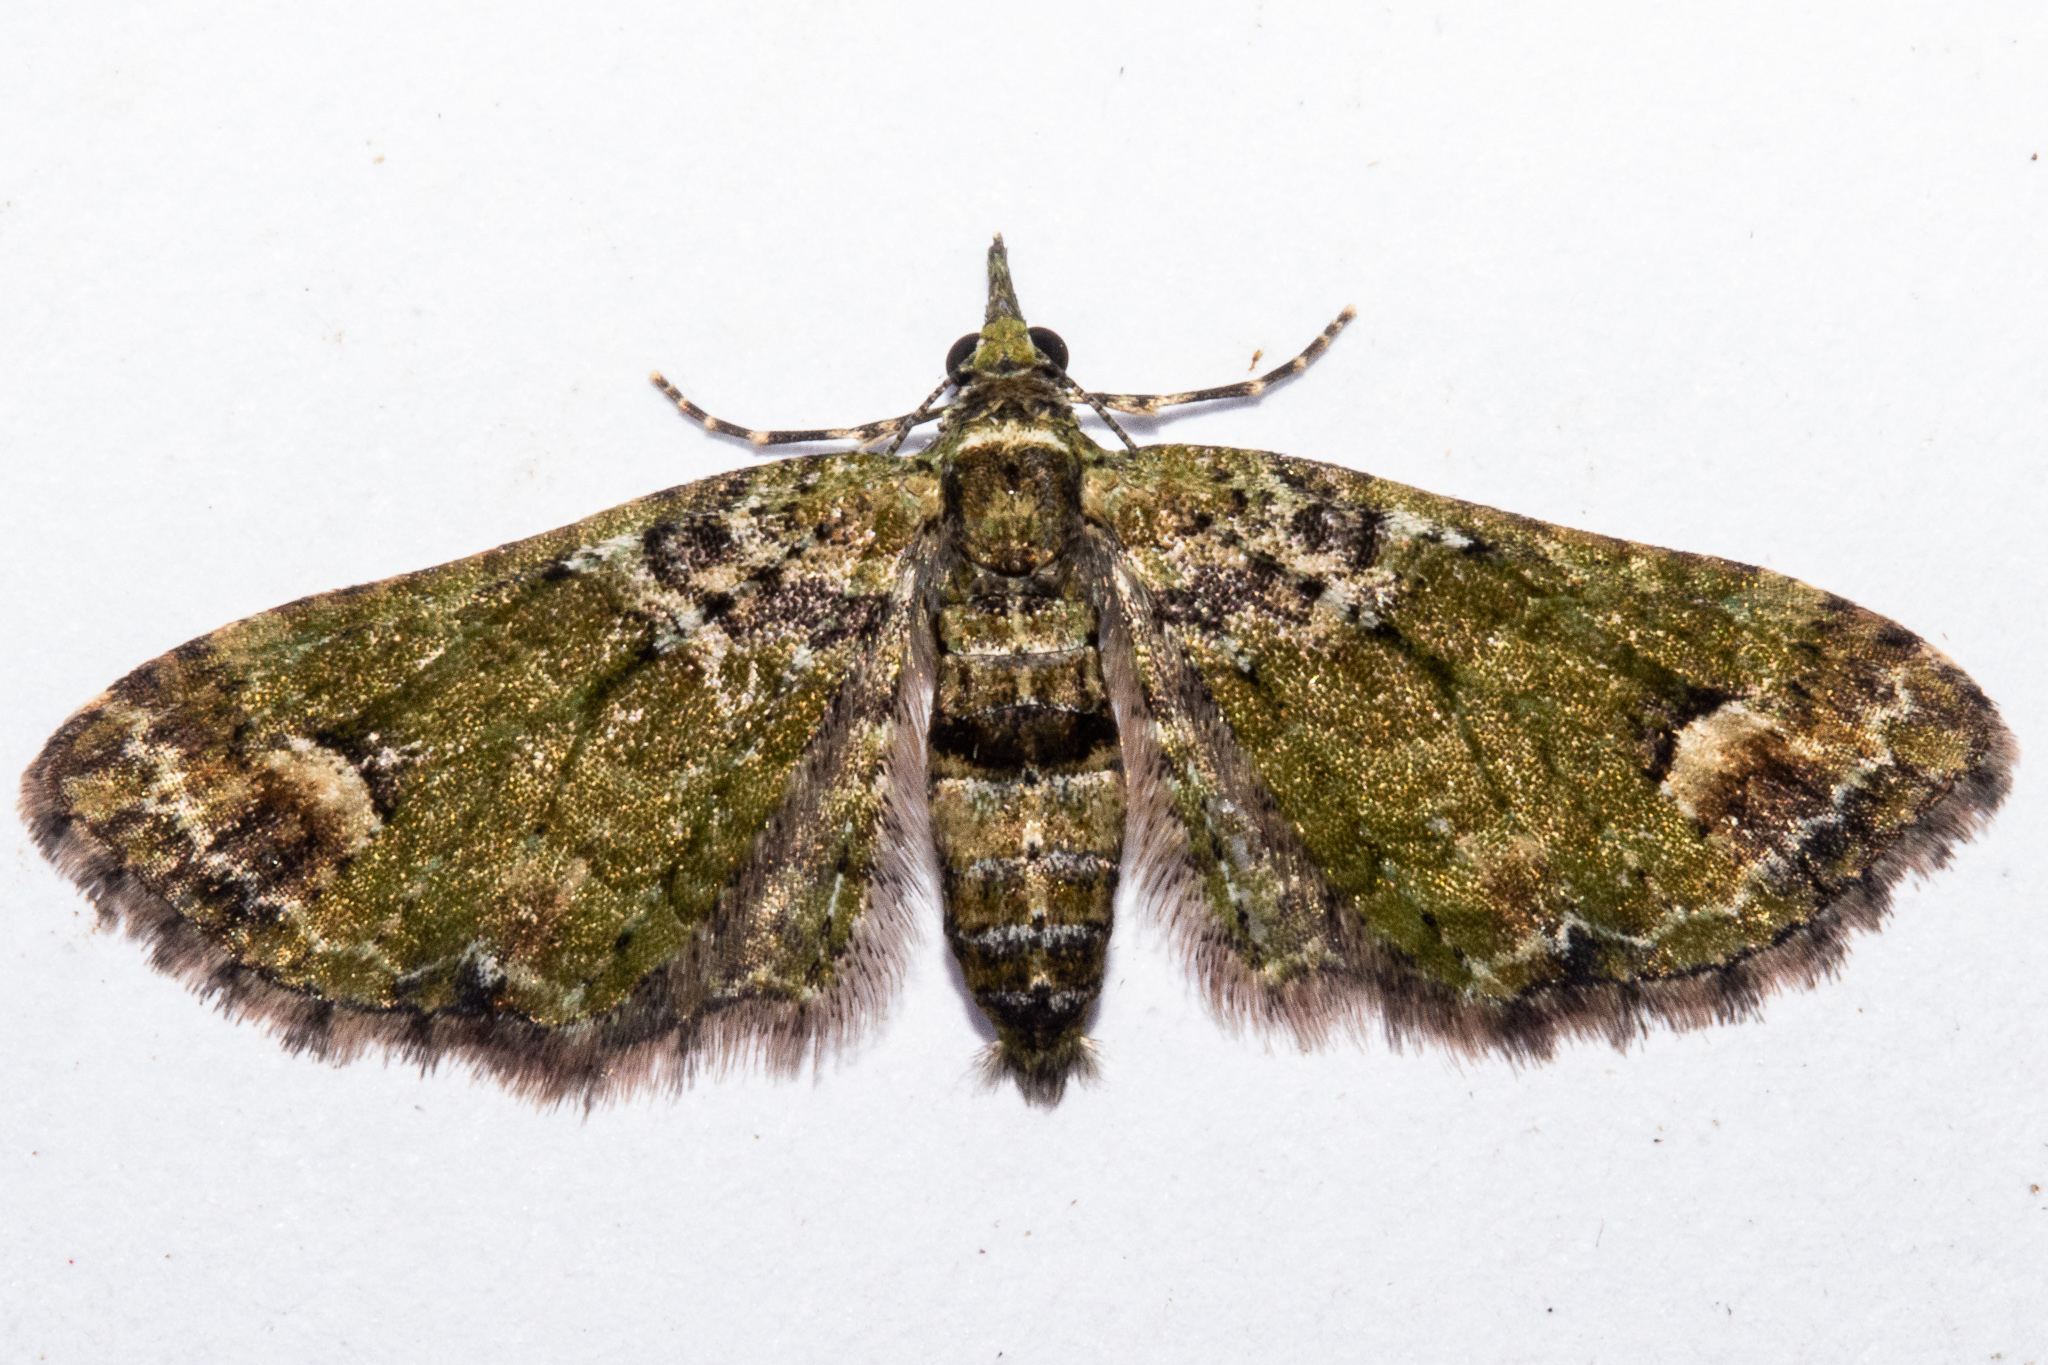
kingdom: Animalia
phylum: Arthropoda
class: Insecta
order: Lepidoptera
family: Geometridae
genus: Idaea
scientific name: Idaea mutanda
